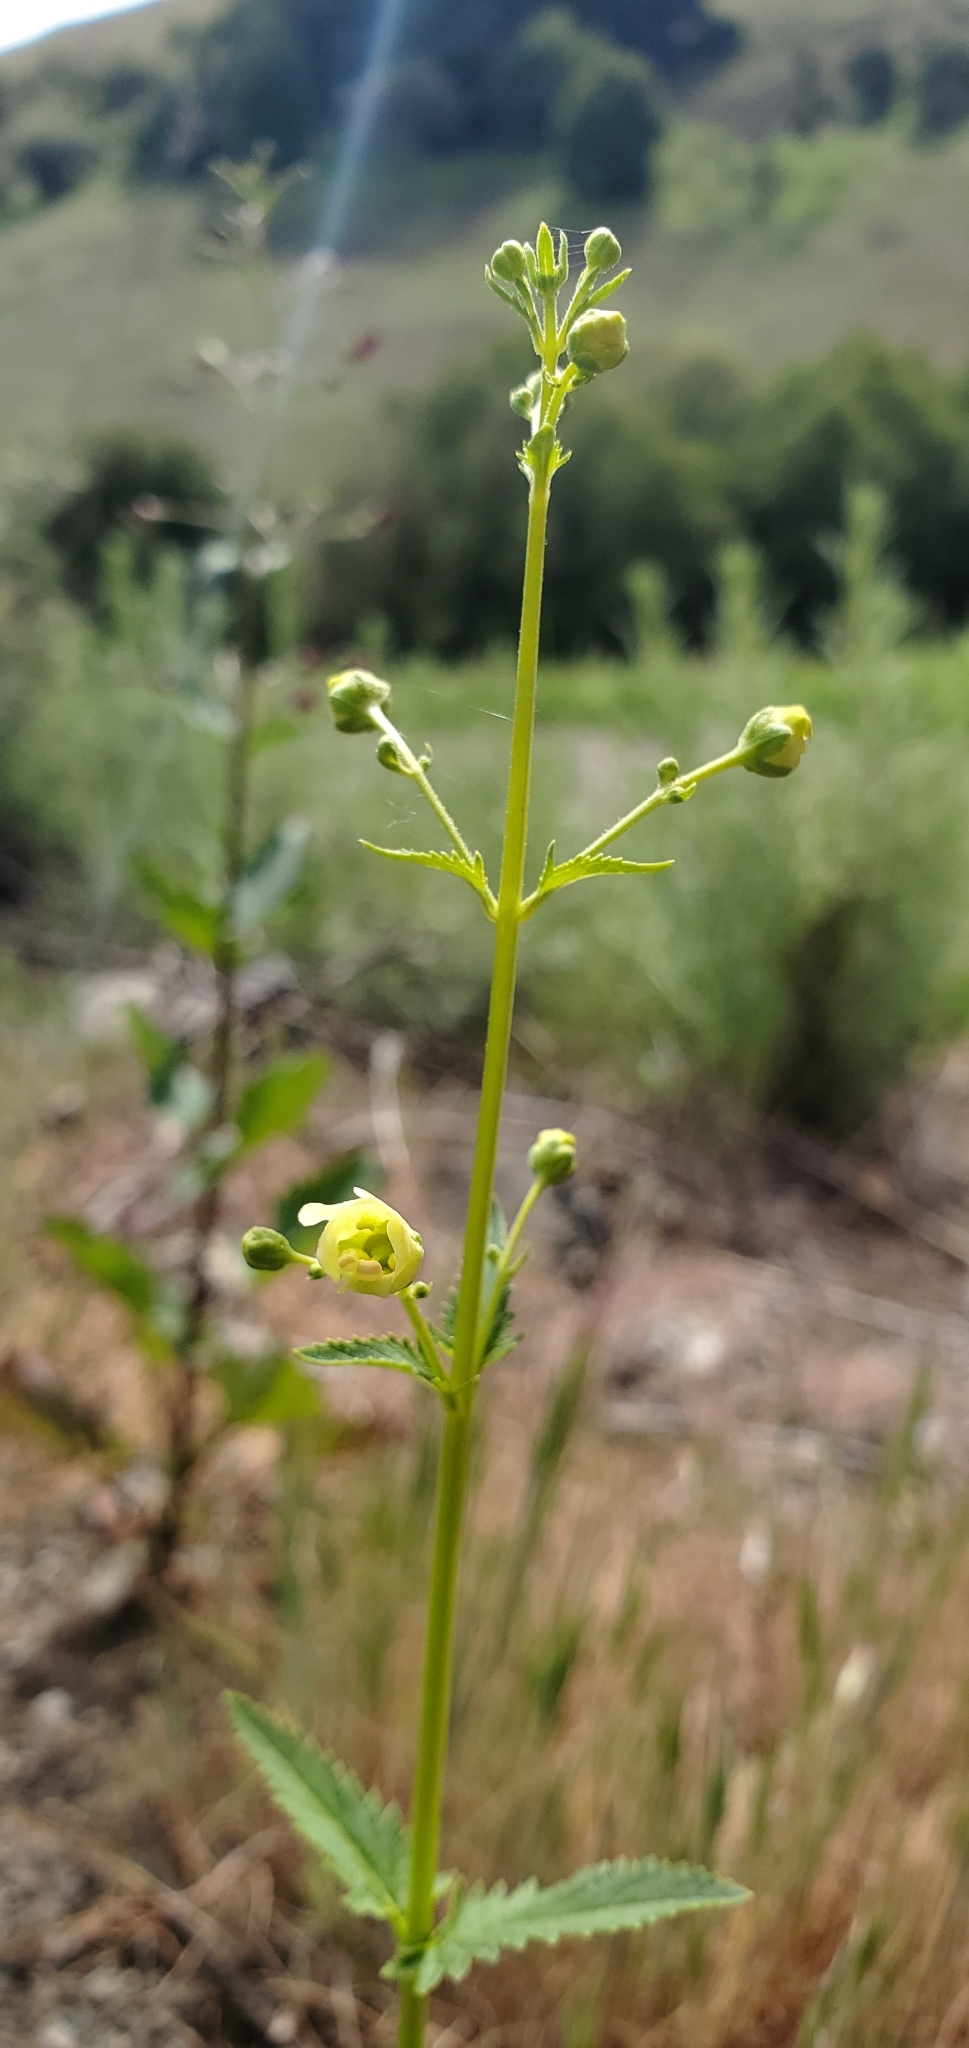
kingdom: Plantae
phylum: Tracheophyta
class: Magnoliopsida
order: Lamiales
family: Scrophulariaceae
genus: Scrophularia
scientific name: Scrophularia californica
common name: California figwort
